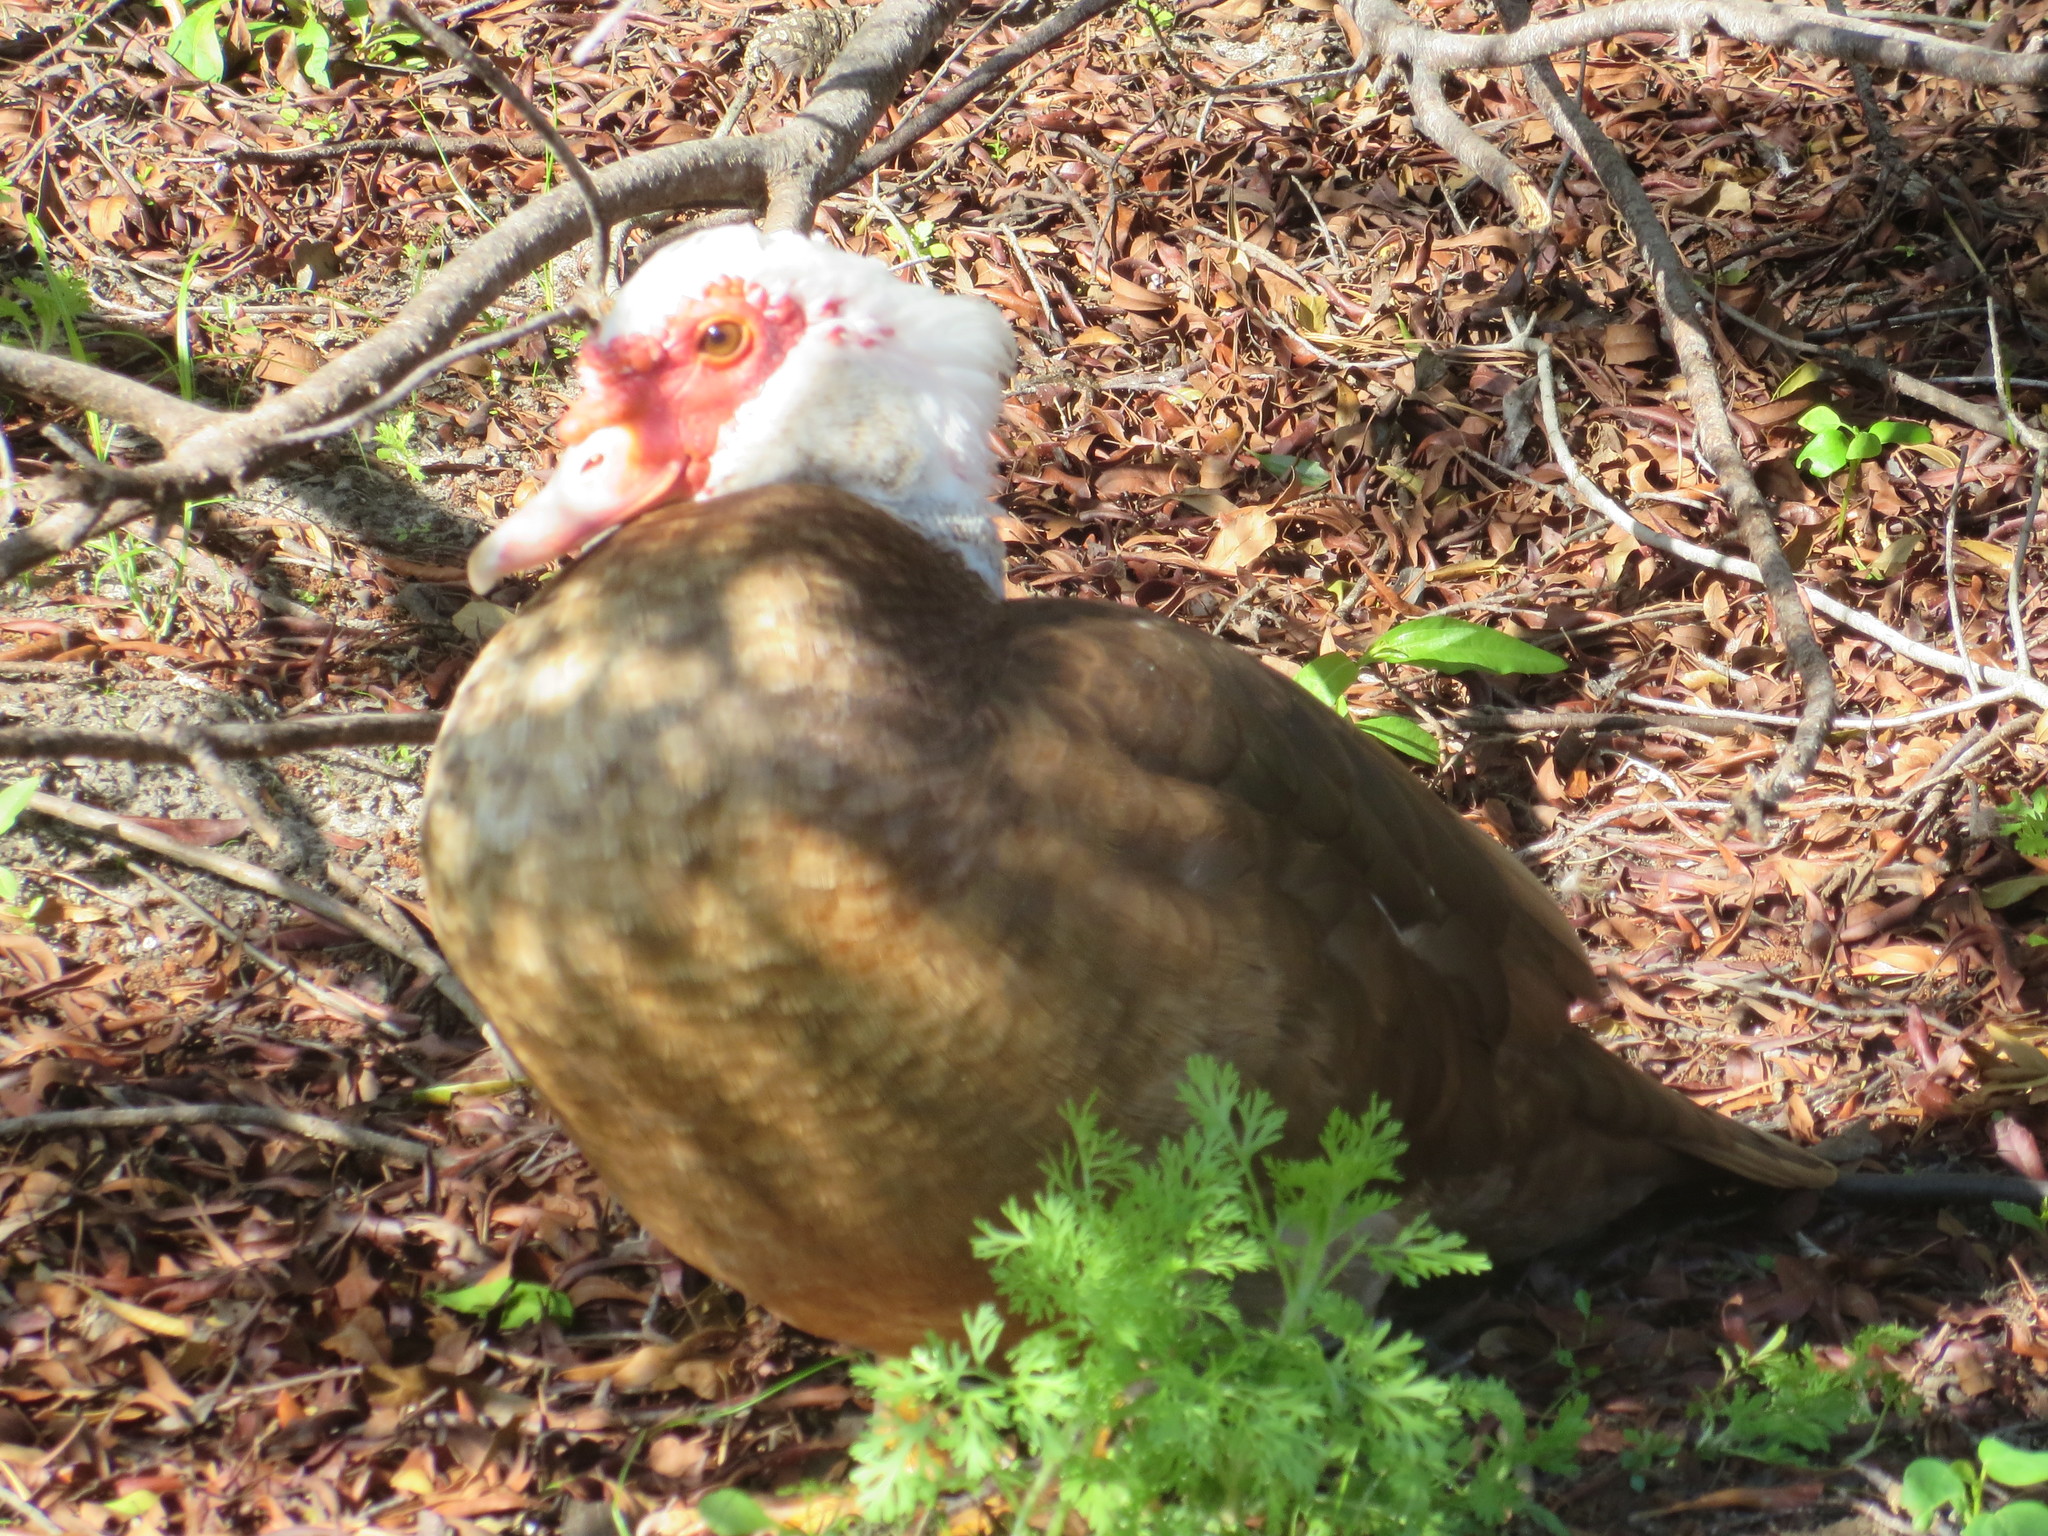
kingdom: Animalia
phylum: Chordata
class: Aves
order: Anseriformes
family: Anatidae
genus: Cairina
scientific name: Cairina moschata
